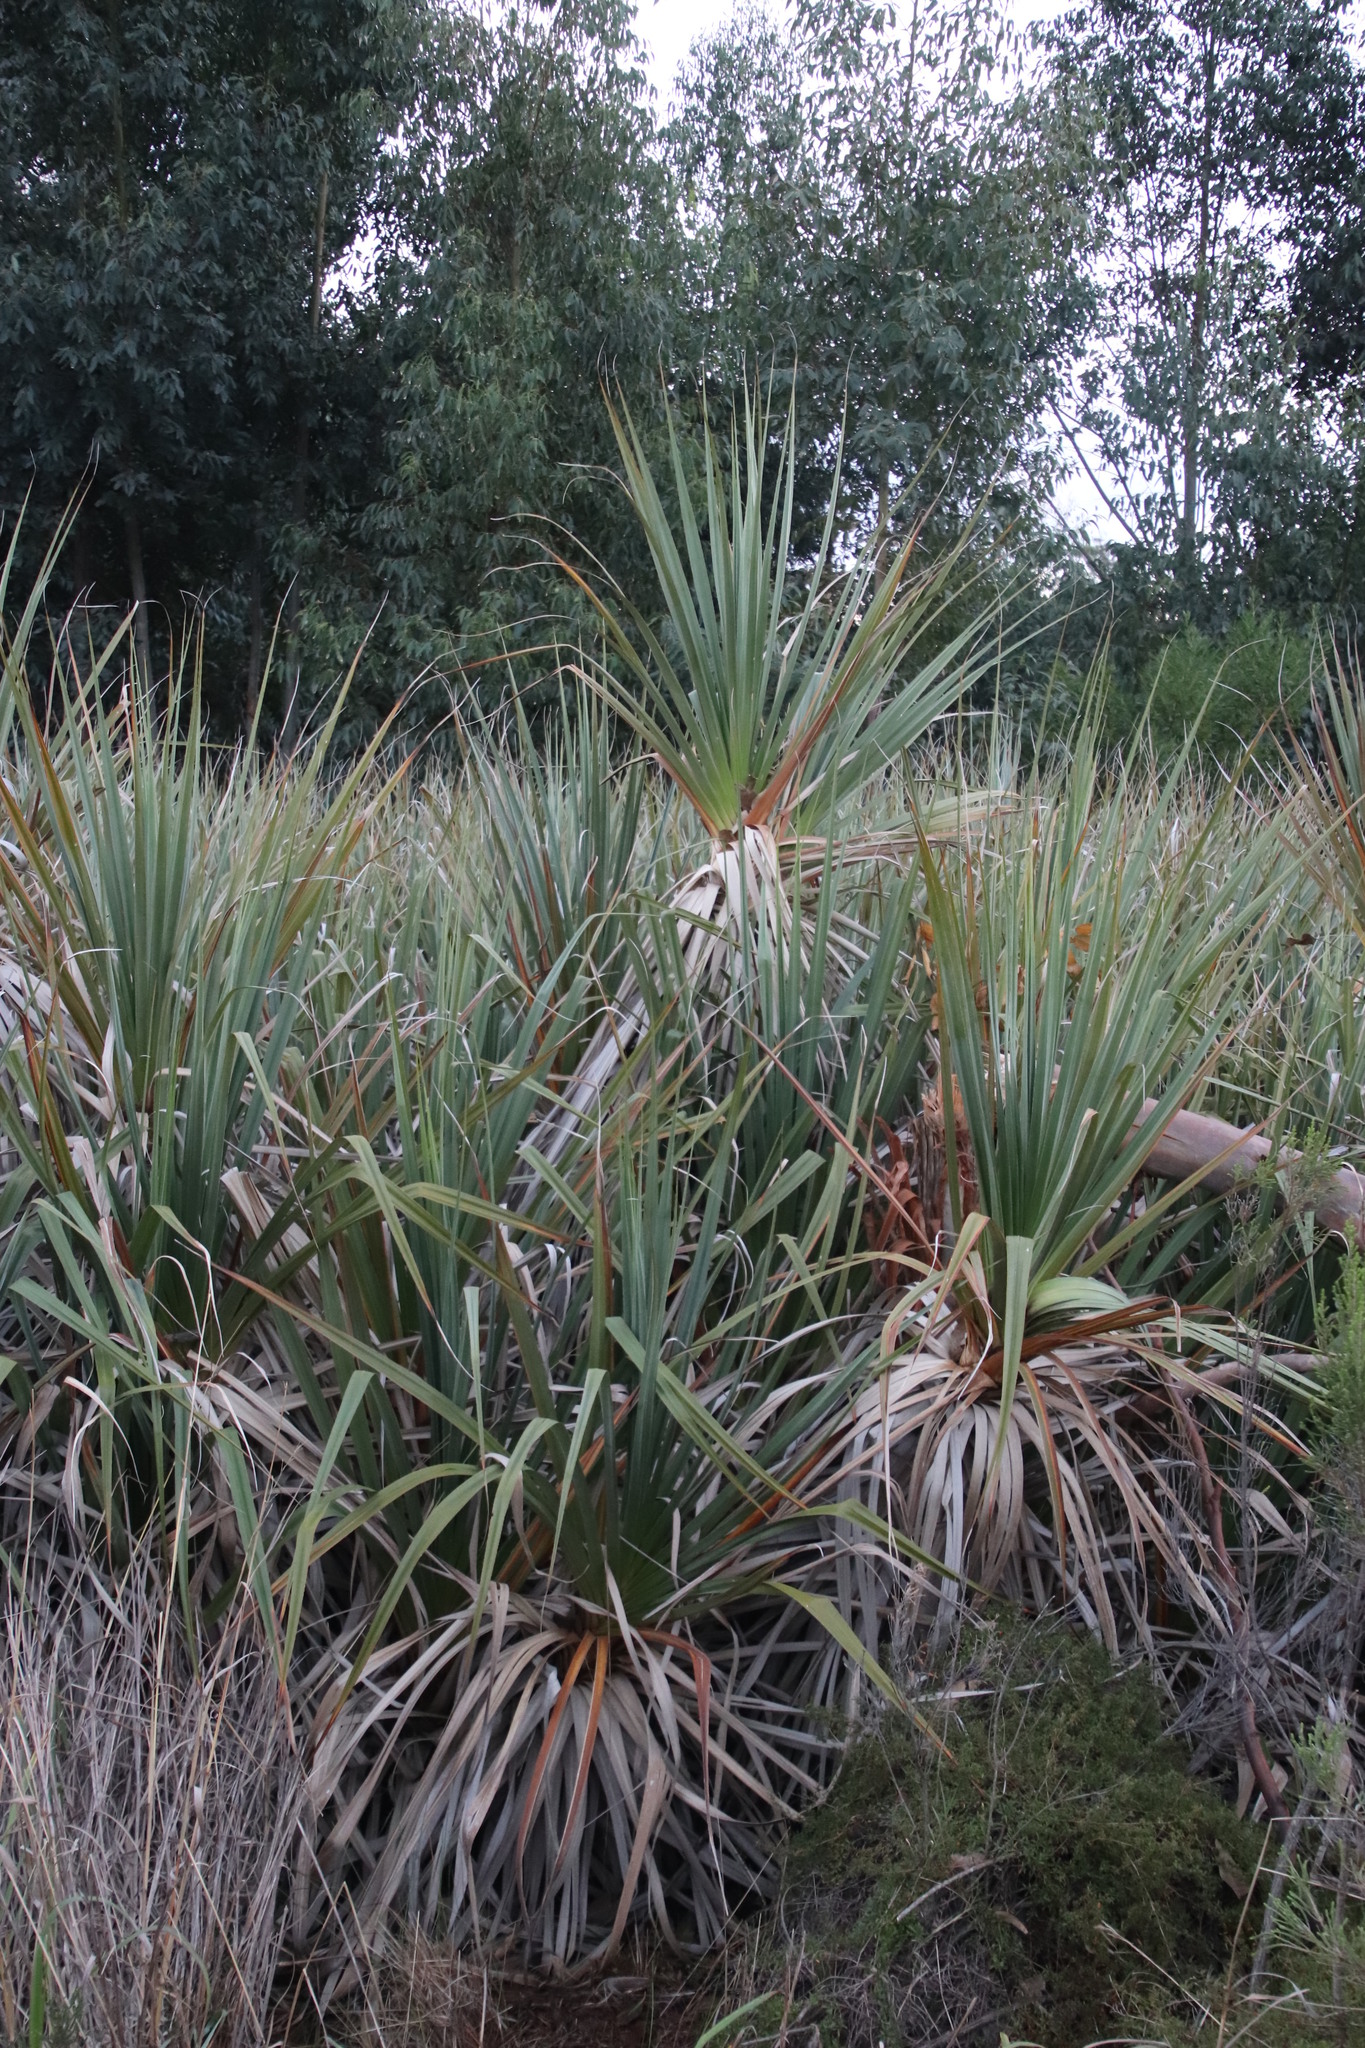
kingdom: Plantae
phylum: Tracheophyta
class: Liliopsida
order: Poales
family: Thurniaceae
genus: Prionium
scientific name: Prionium serratum
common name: Palmiet
